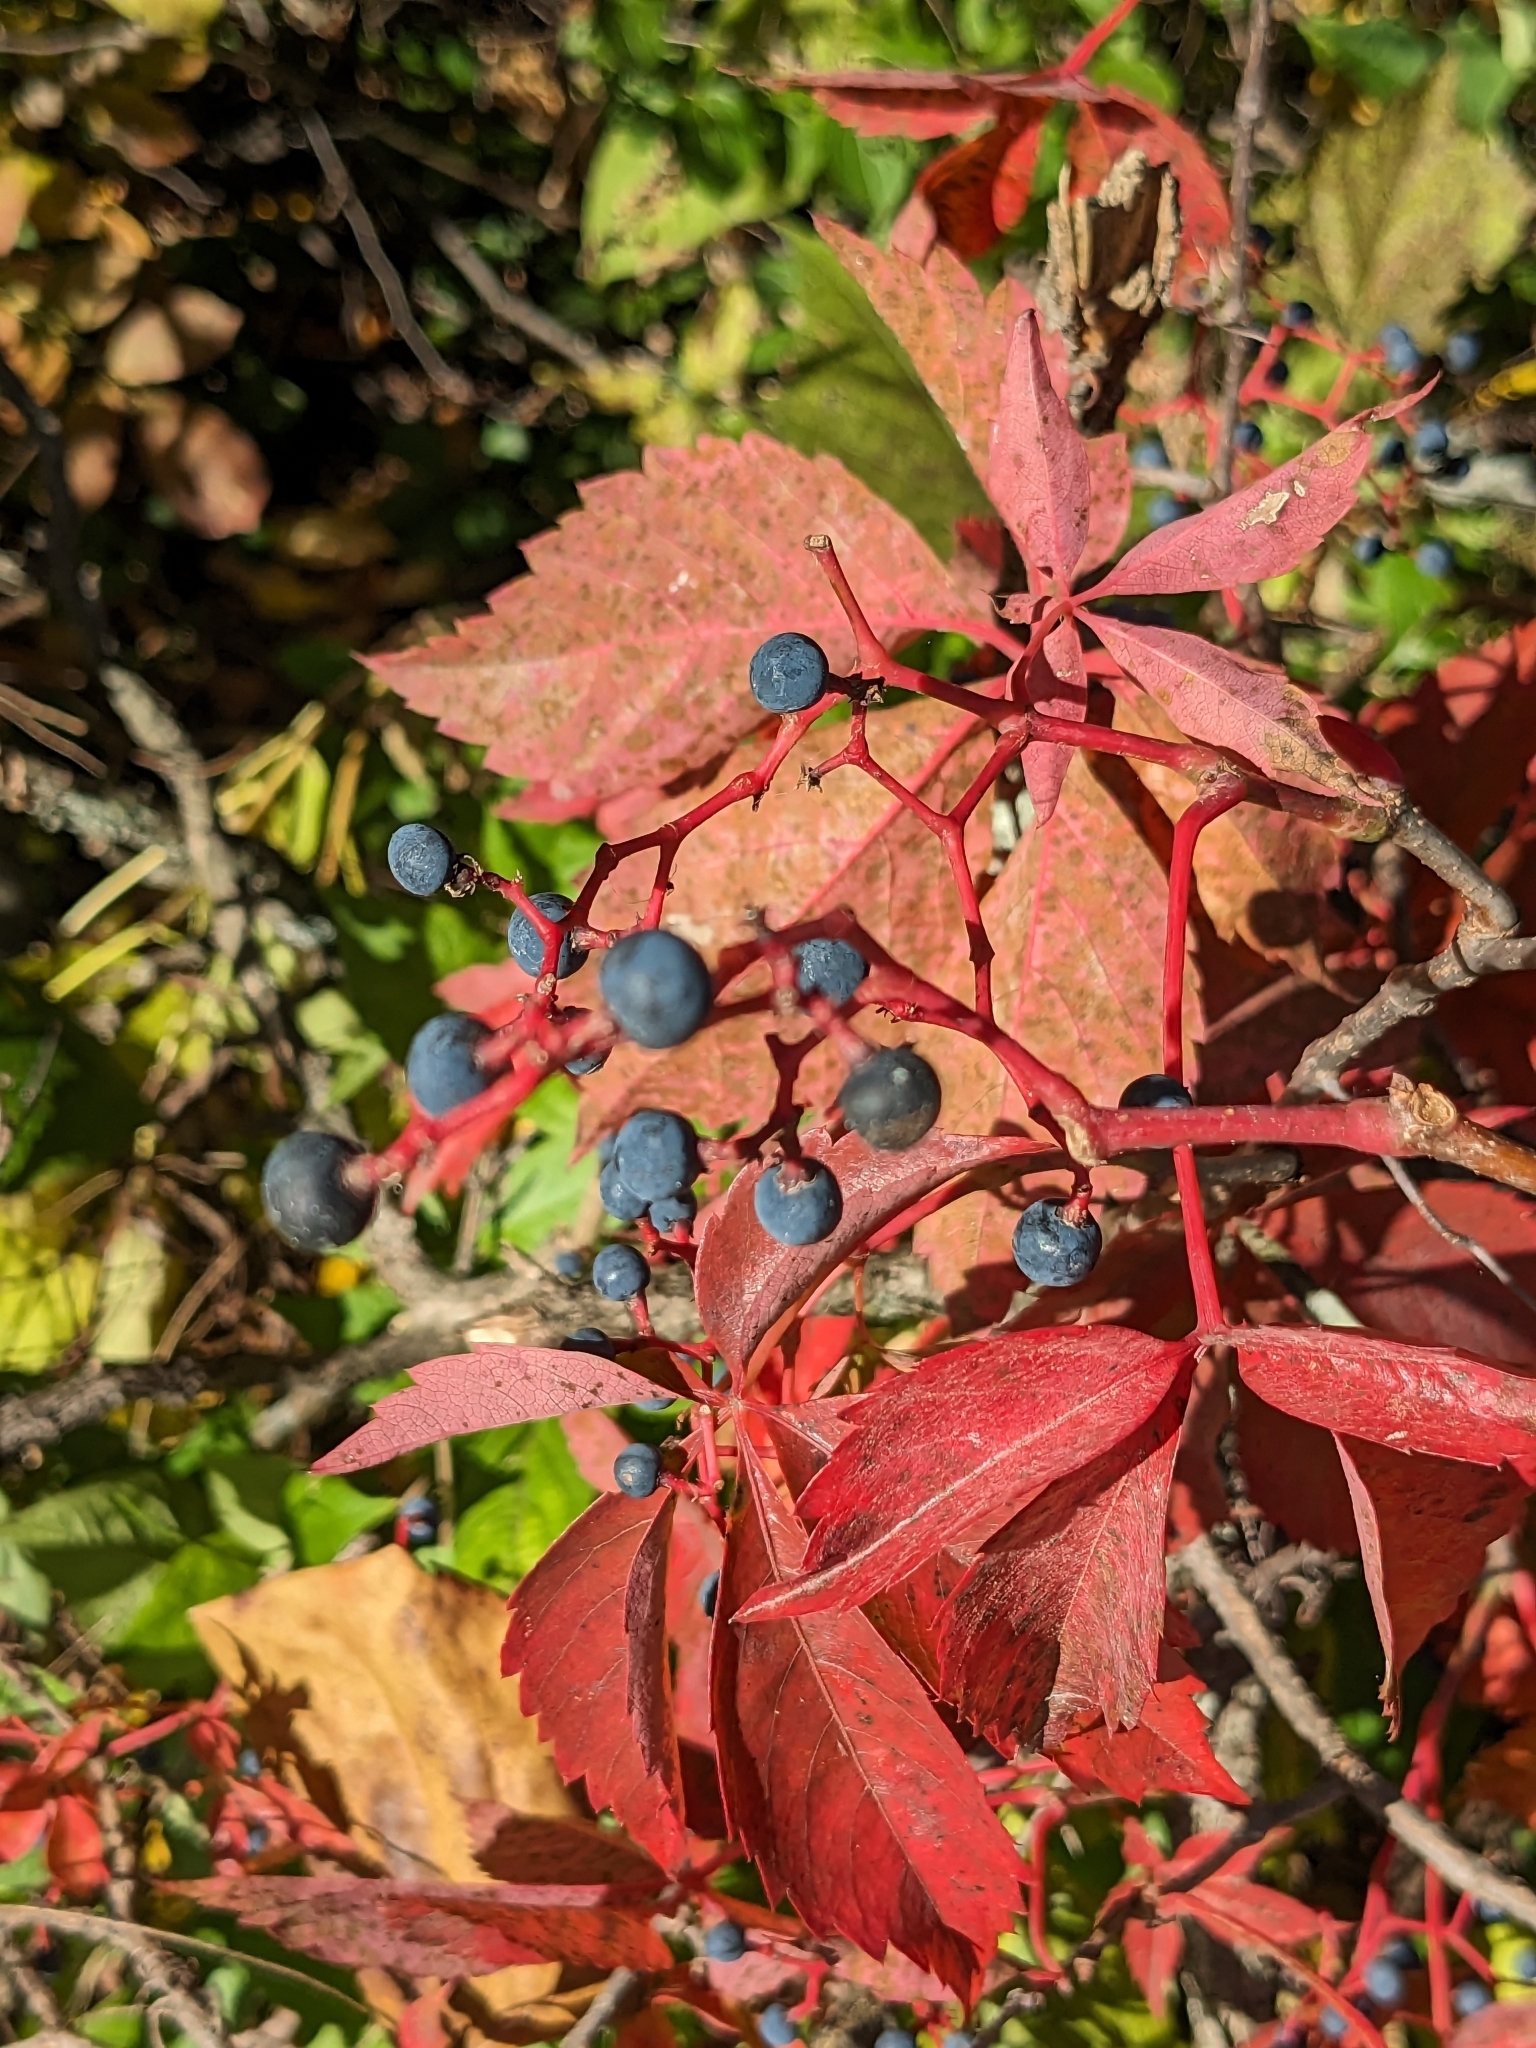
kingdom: Plantae
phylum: Tracheophyta
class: Magnoliopsida
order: Vitales
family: Vitaceae
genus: Parthenocissus
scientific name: Parthenocissus quinquefolia
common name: Virginia-creeper
